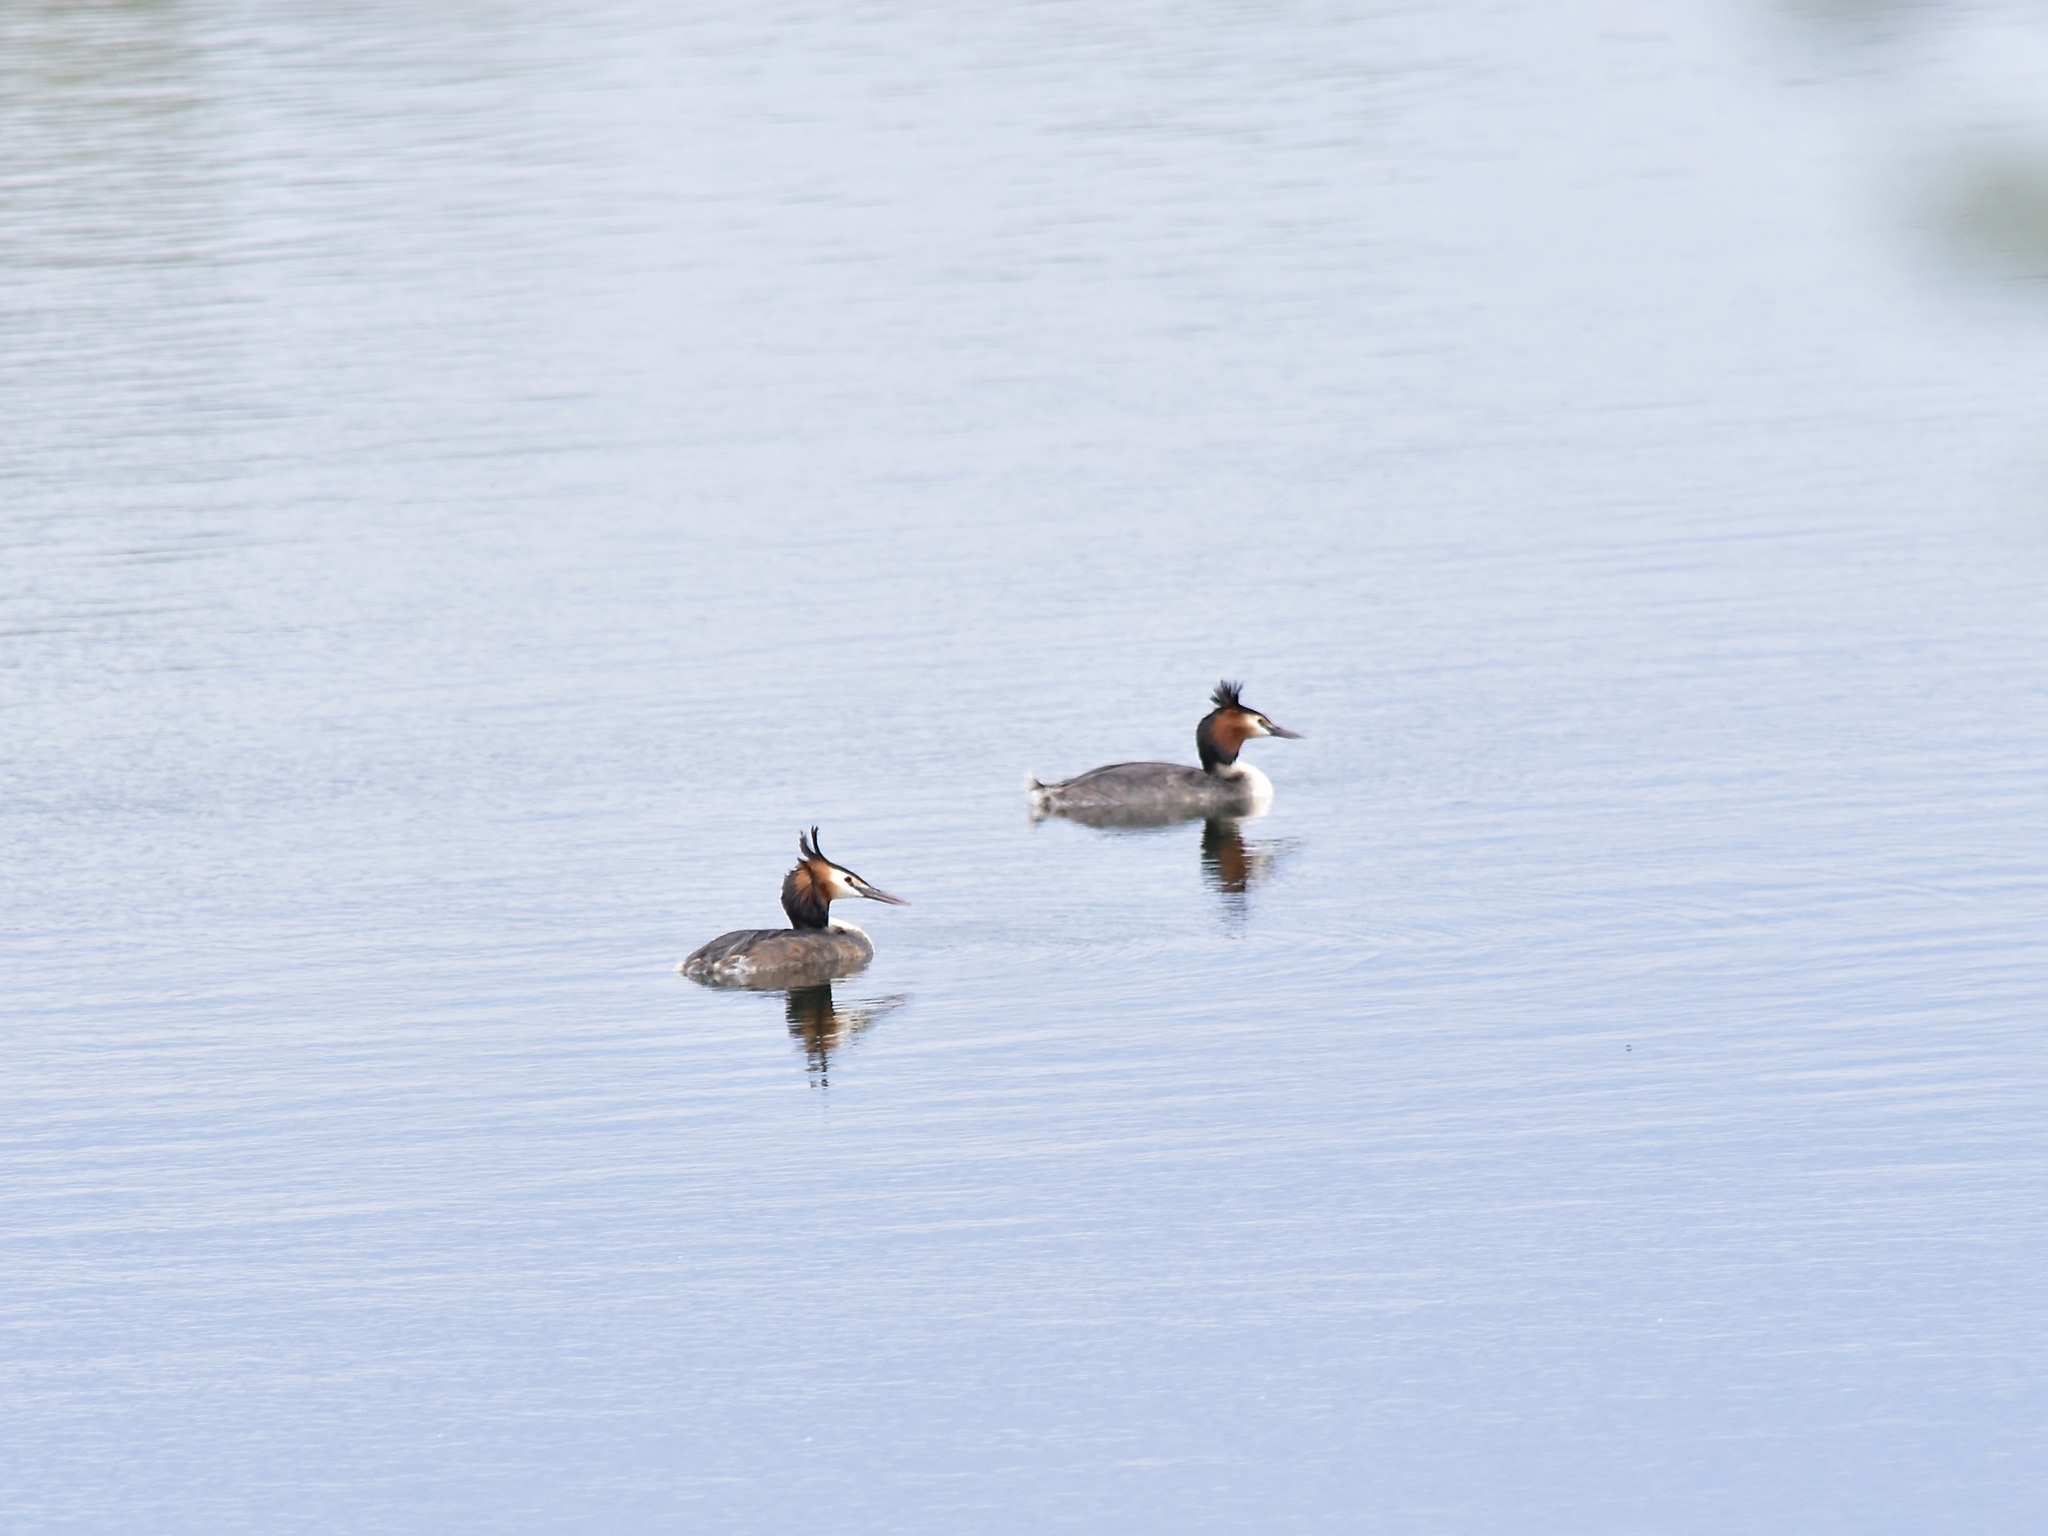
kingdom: Animalia
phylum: Chordata
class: Aves
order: Podicipediformes
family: Podicipedidae
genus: Podiceps
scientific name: Podiceps cristatus
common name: Great crested grebe
